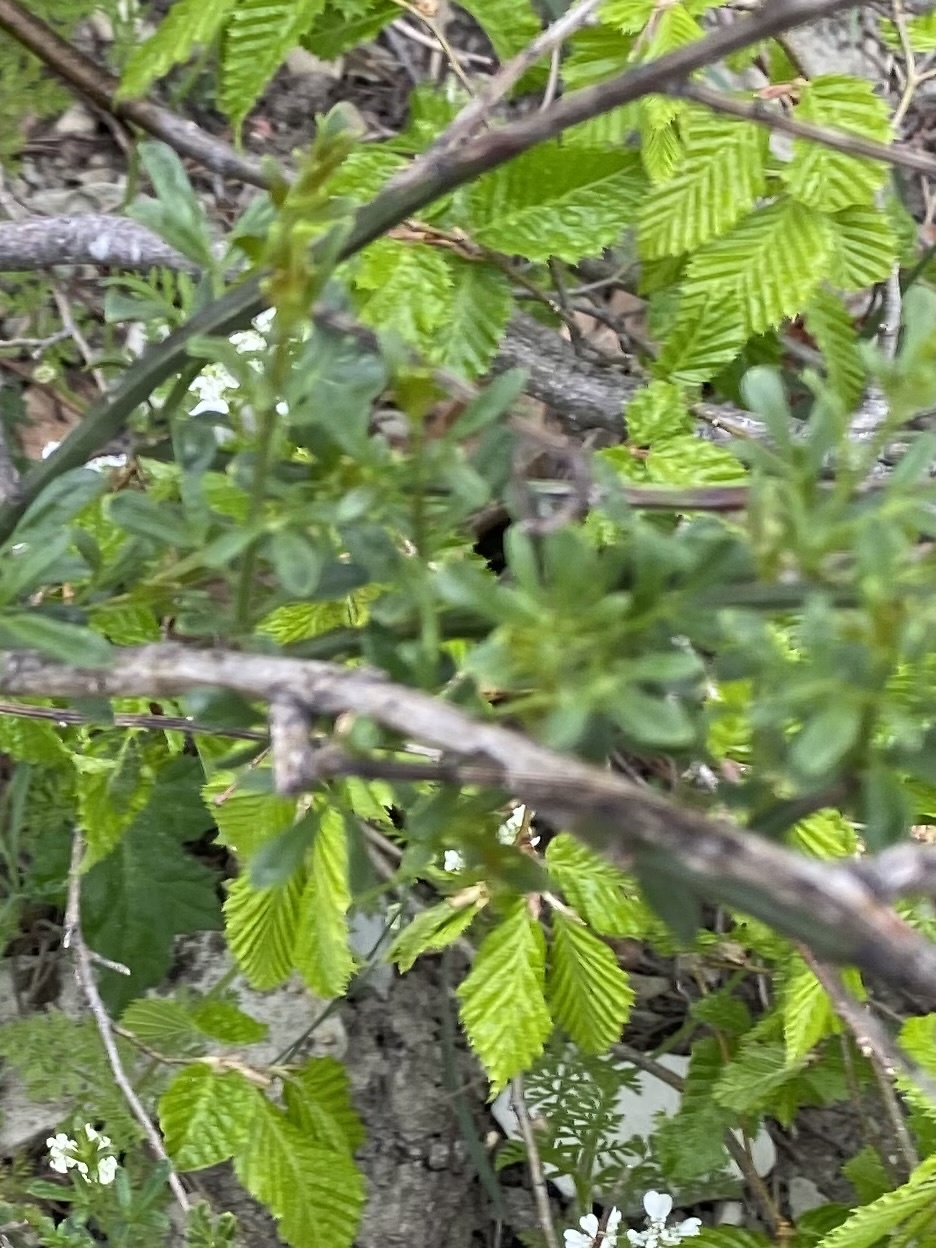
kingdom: Plantae
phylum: Tracheophyta
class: Magnoliopsida
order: Fagales
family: Betulaceae
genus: Carpinus
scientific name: Carpinus orientalis
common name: Eastern hornbeam
